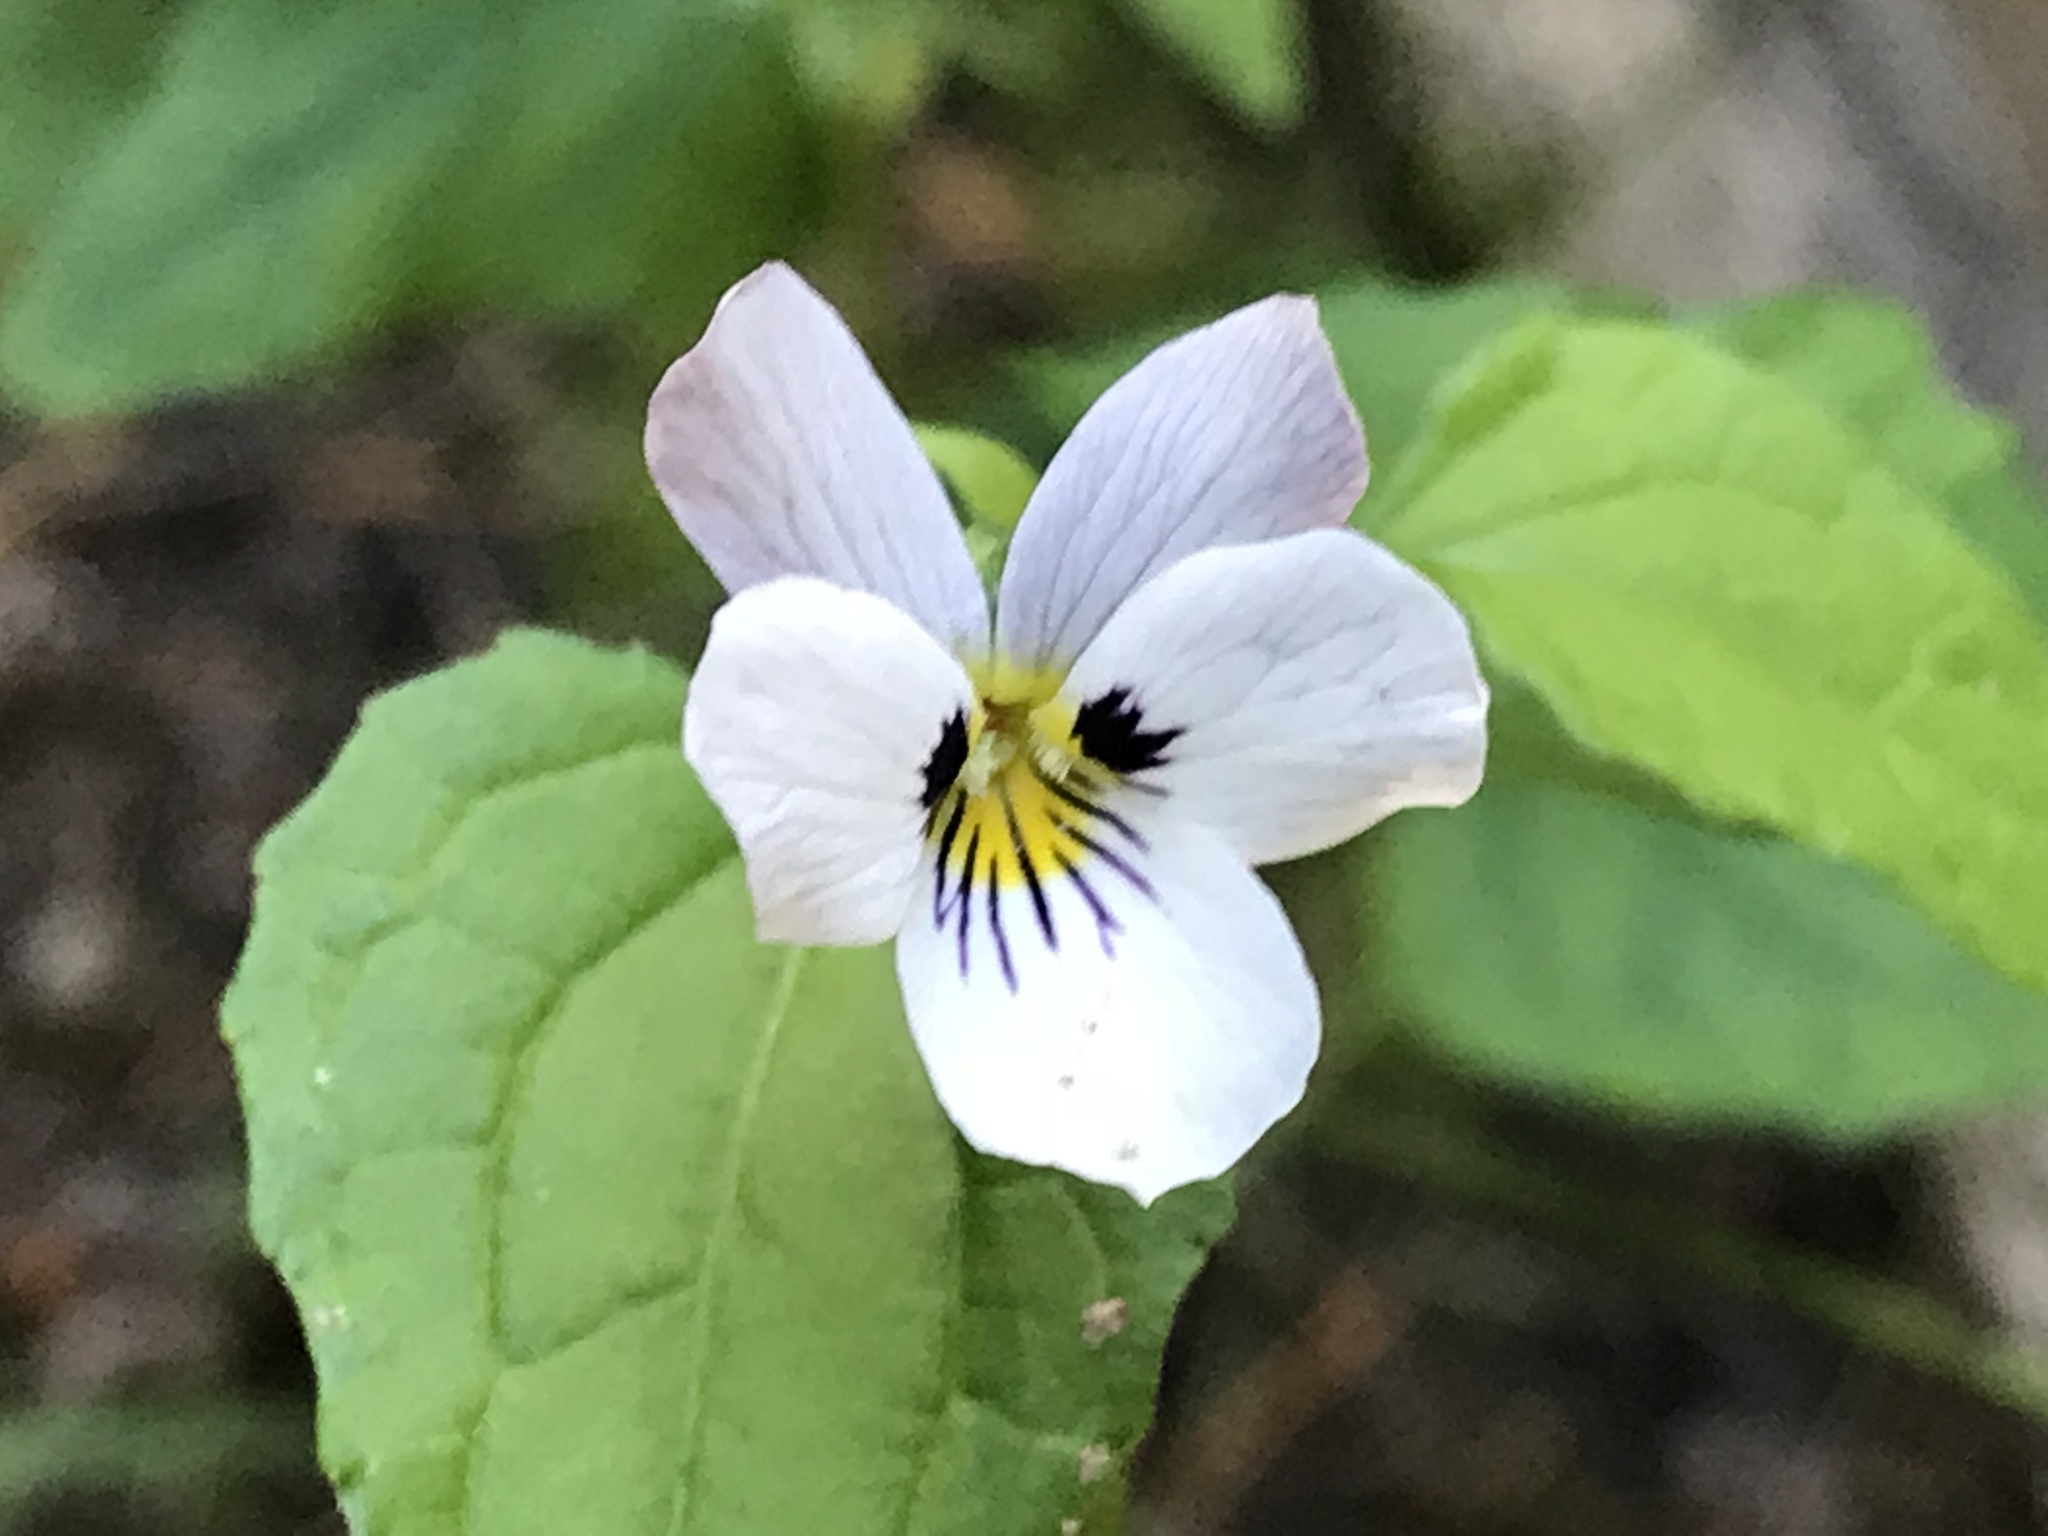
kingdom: Plantae
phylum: Tracheophyta
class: Magnoliopsida
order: Malpighiales
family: Violaceae
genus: Viola
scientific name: Viola ocellata
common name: Western heart's ease
